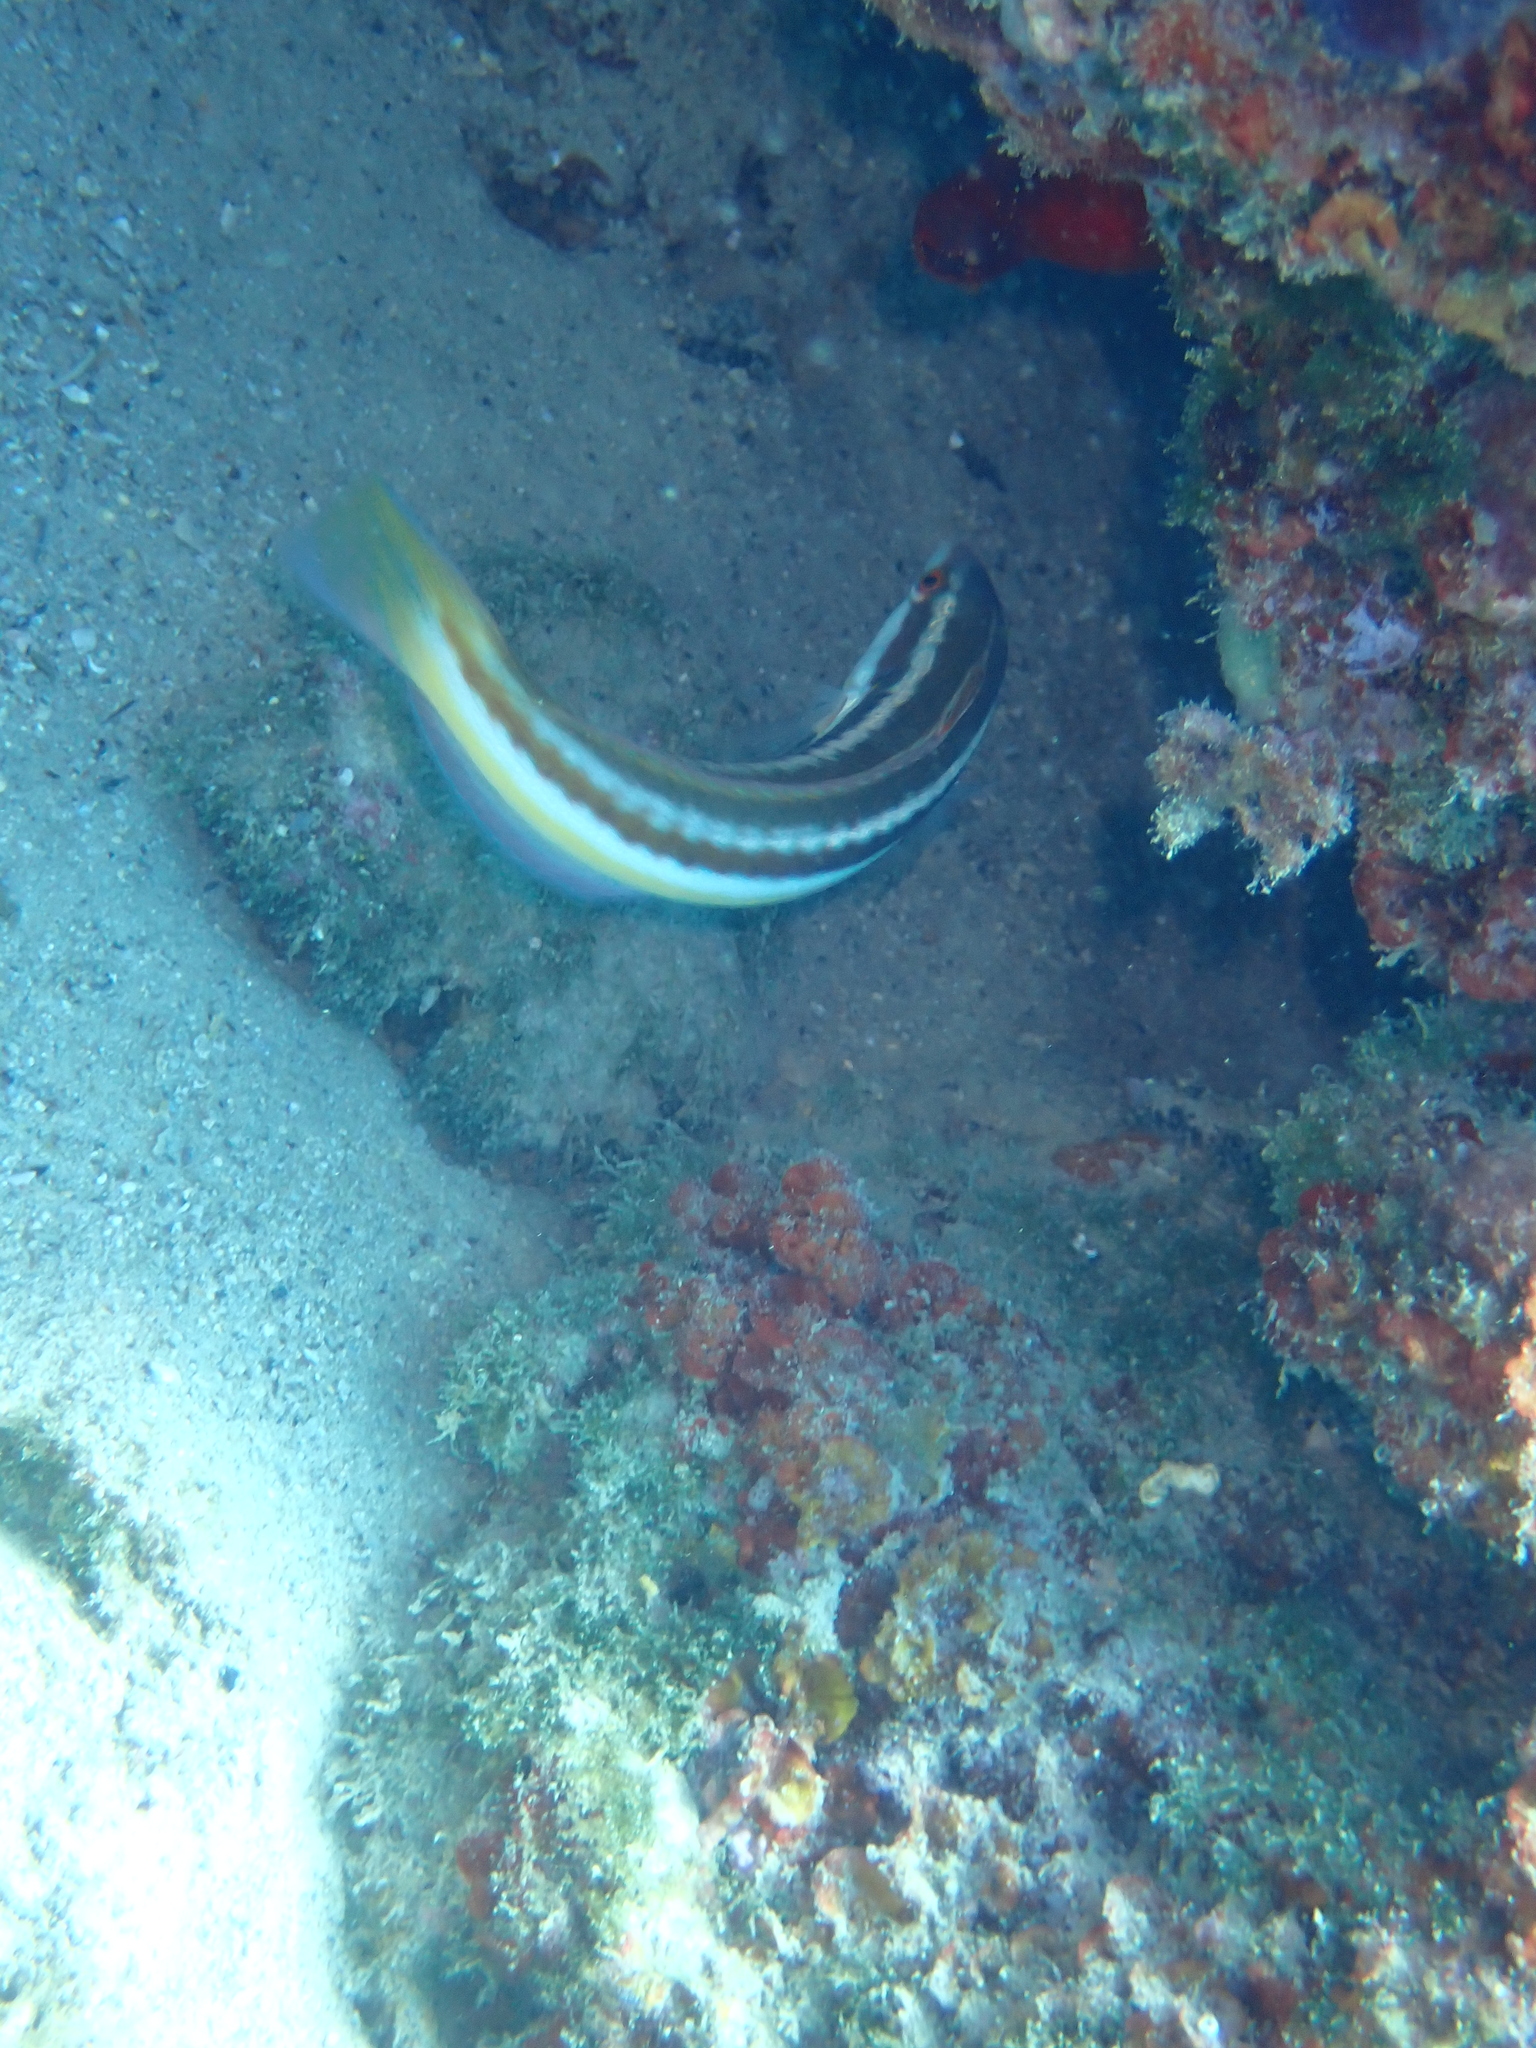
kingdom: Animalia
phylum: Chordata
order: Perciformes
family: Labridae
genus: Coris
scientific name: Coris julis
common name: Rainbow wrasse
